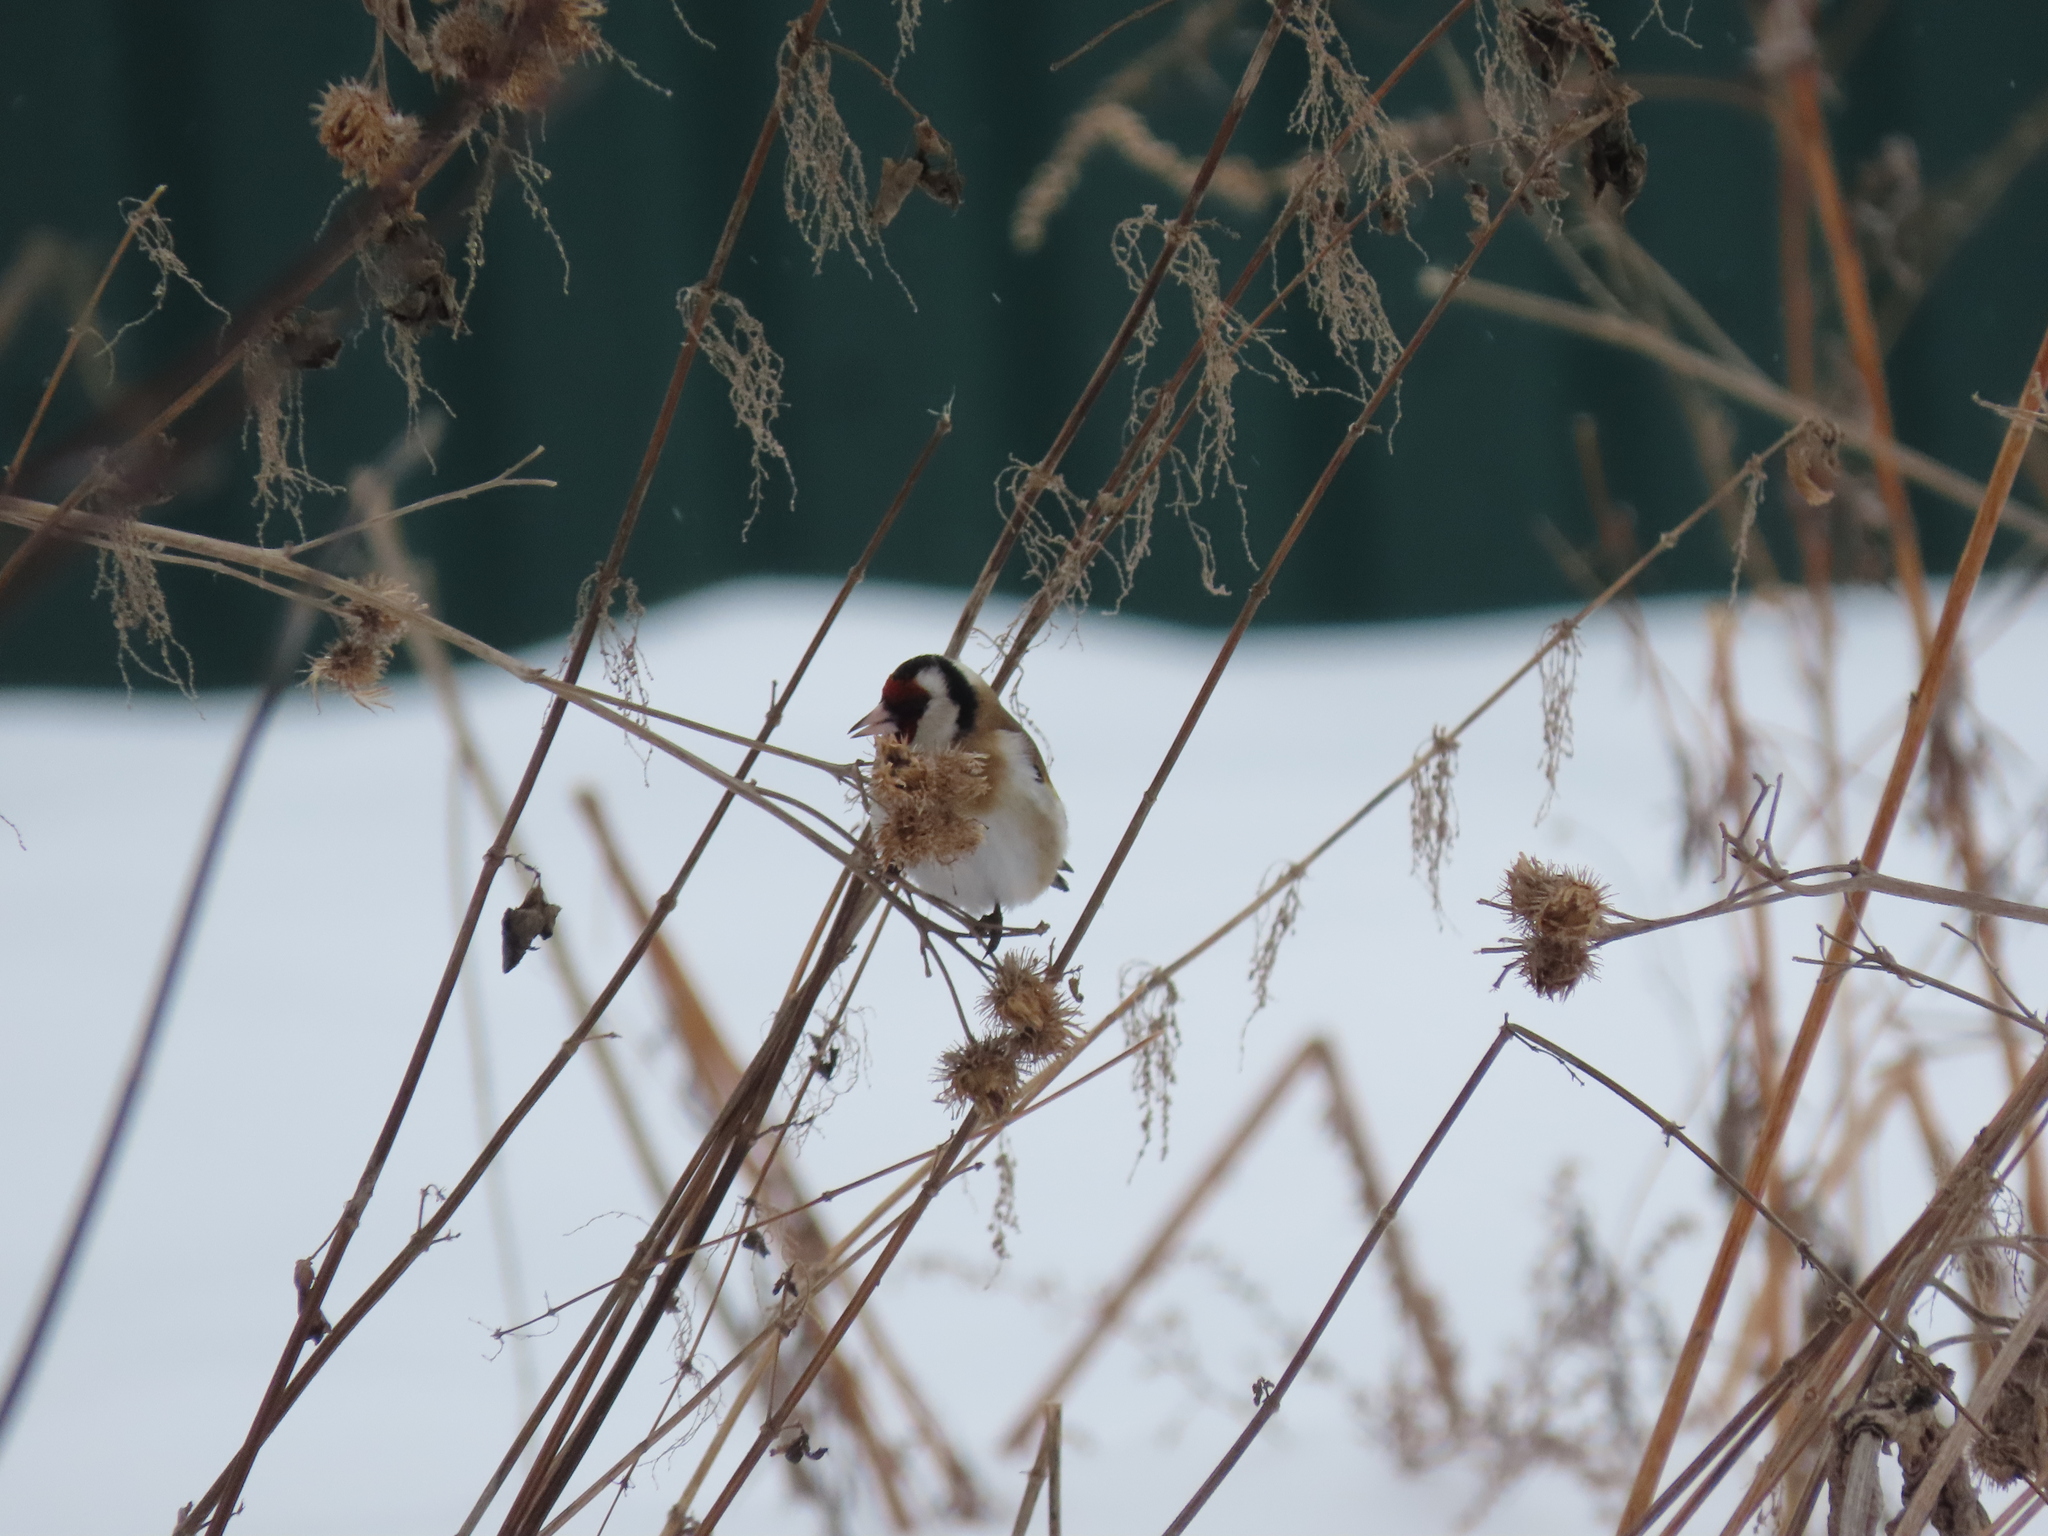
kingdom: Animalia
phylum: Chordata
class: Aves
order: Passeriformes
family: Fringillidae
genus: Carduelis
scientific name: Carduelis carduelis
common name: European goldfinch
